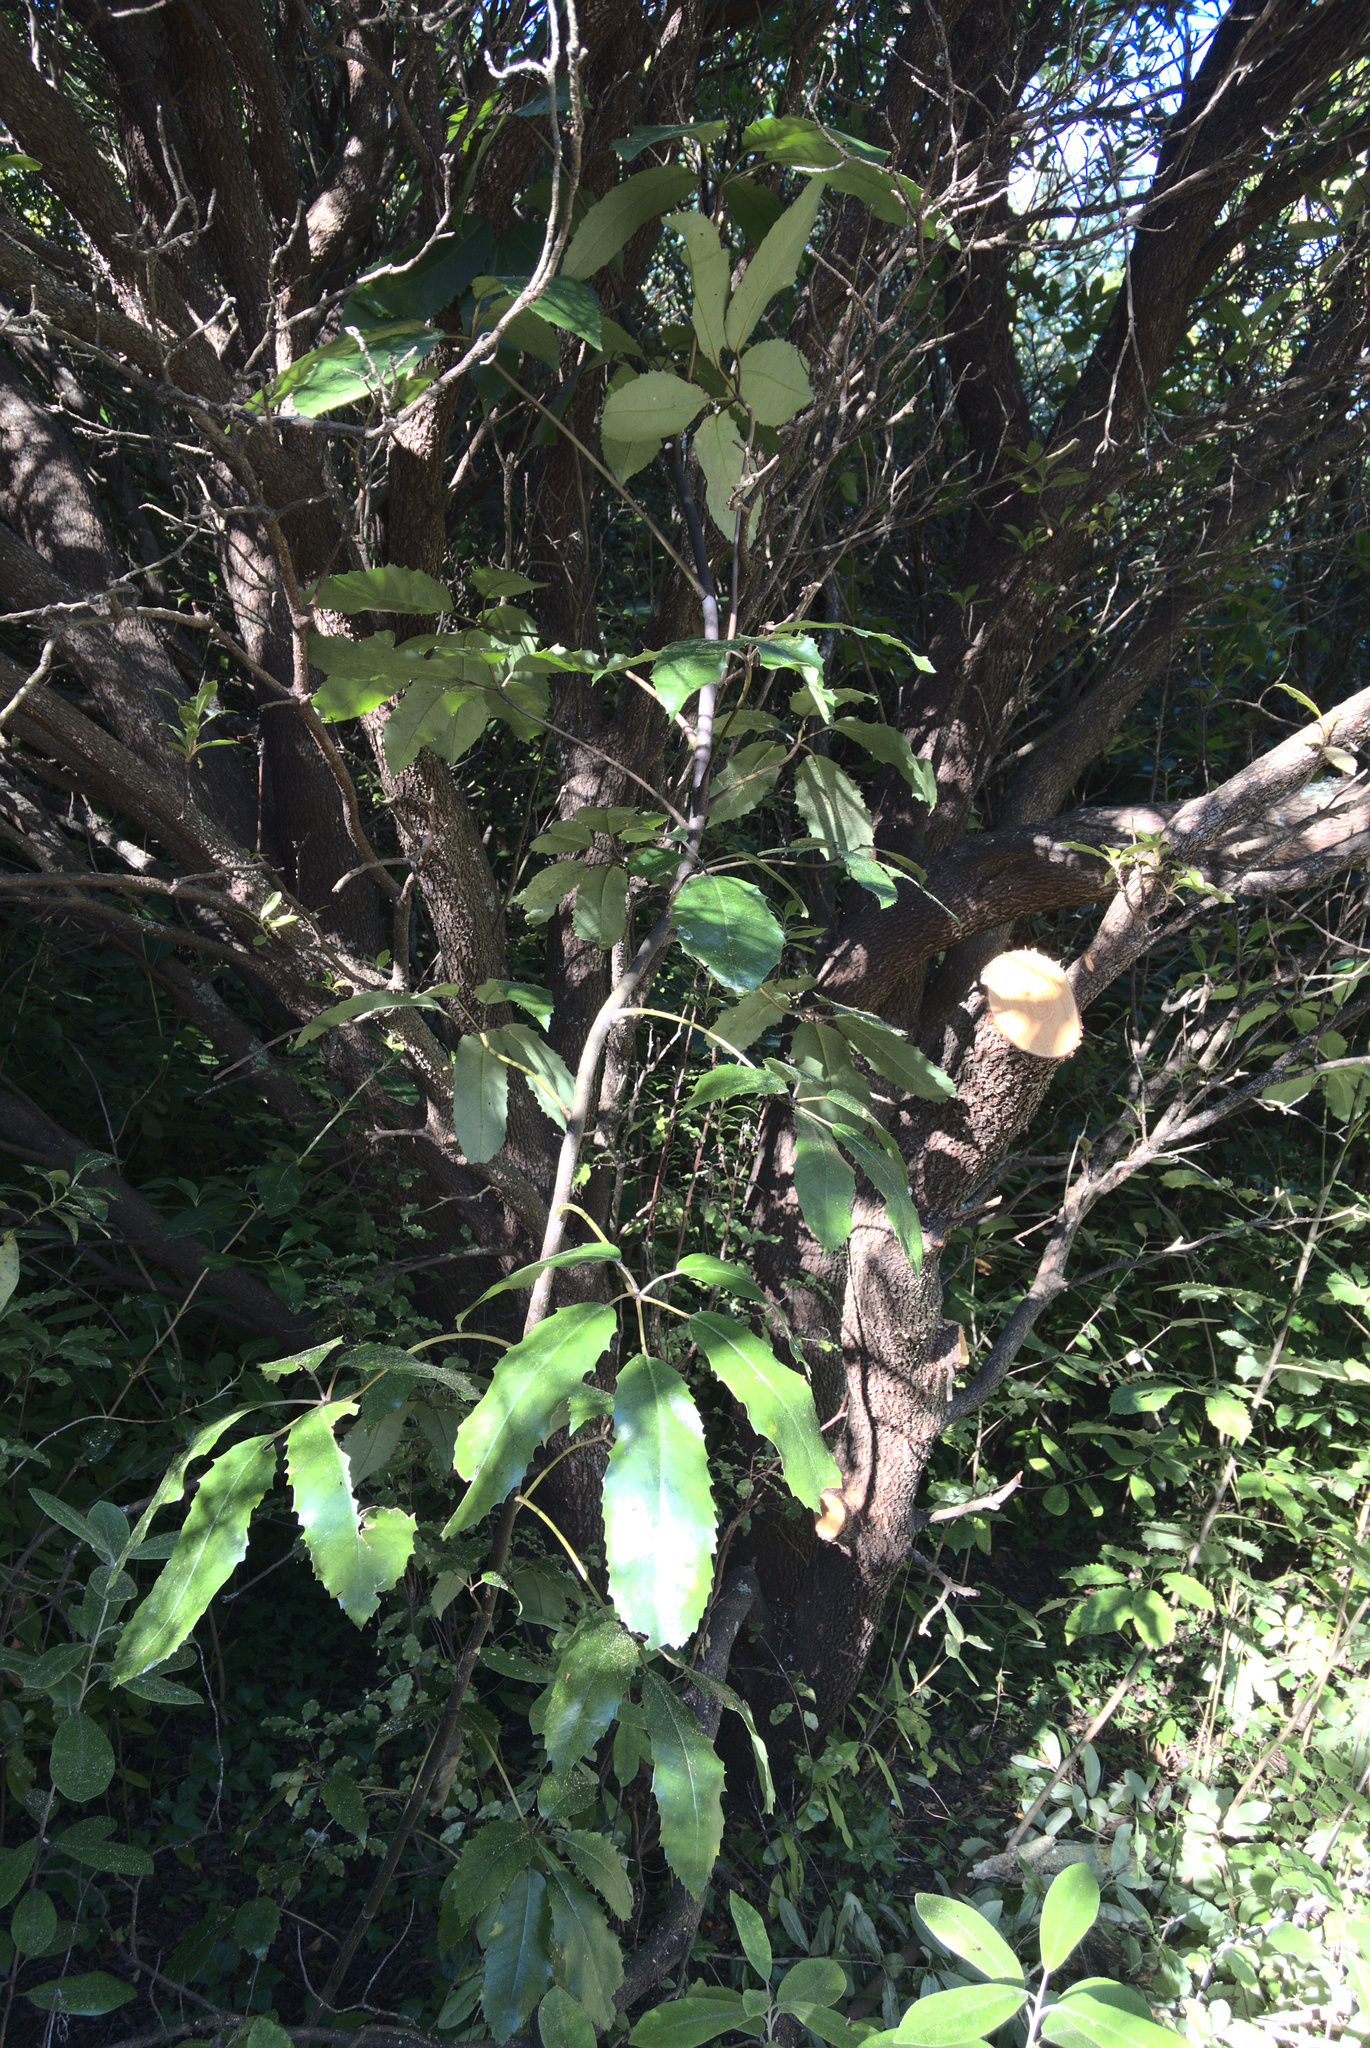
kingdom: Plantae
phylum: Tracheophyta
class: Magnoliopsida
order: Apiales
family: Araliaceae
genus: Neopanax
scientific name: Neopanax arboreus
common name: Five-fingers
